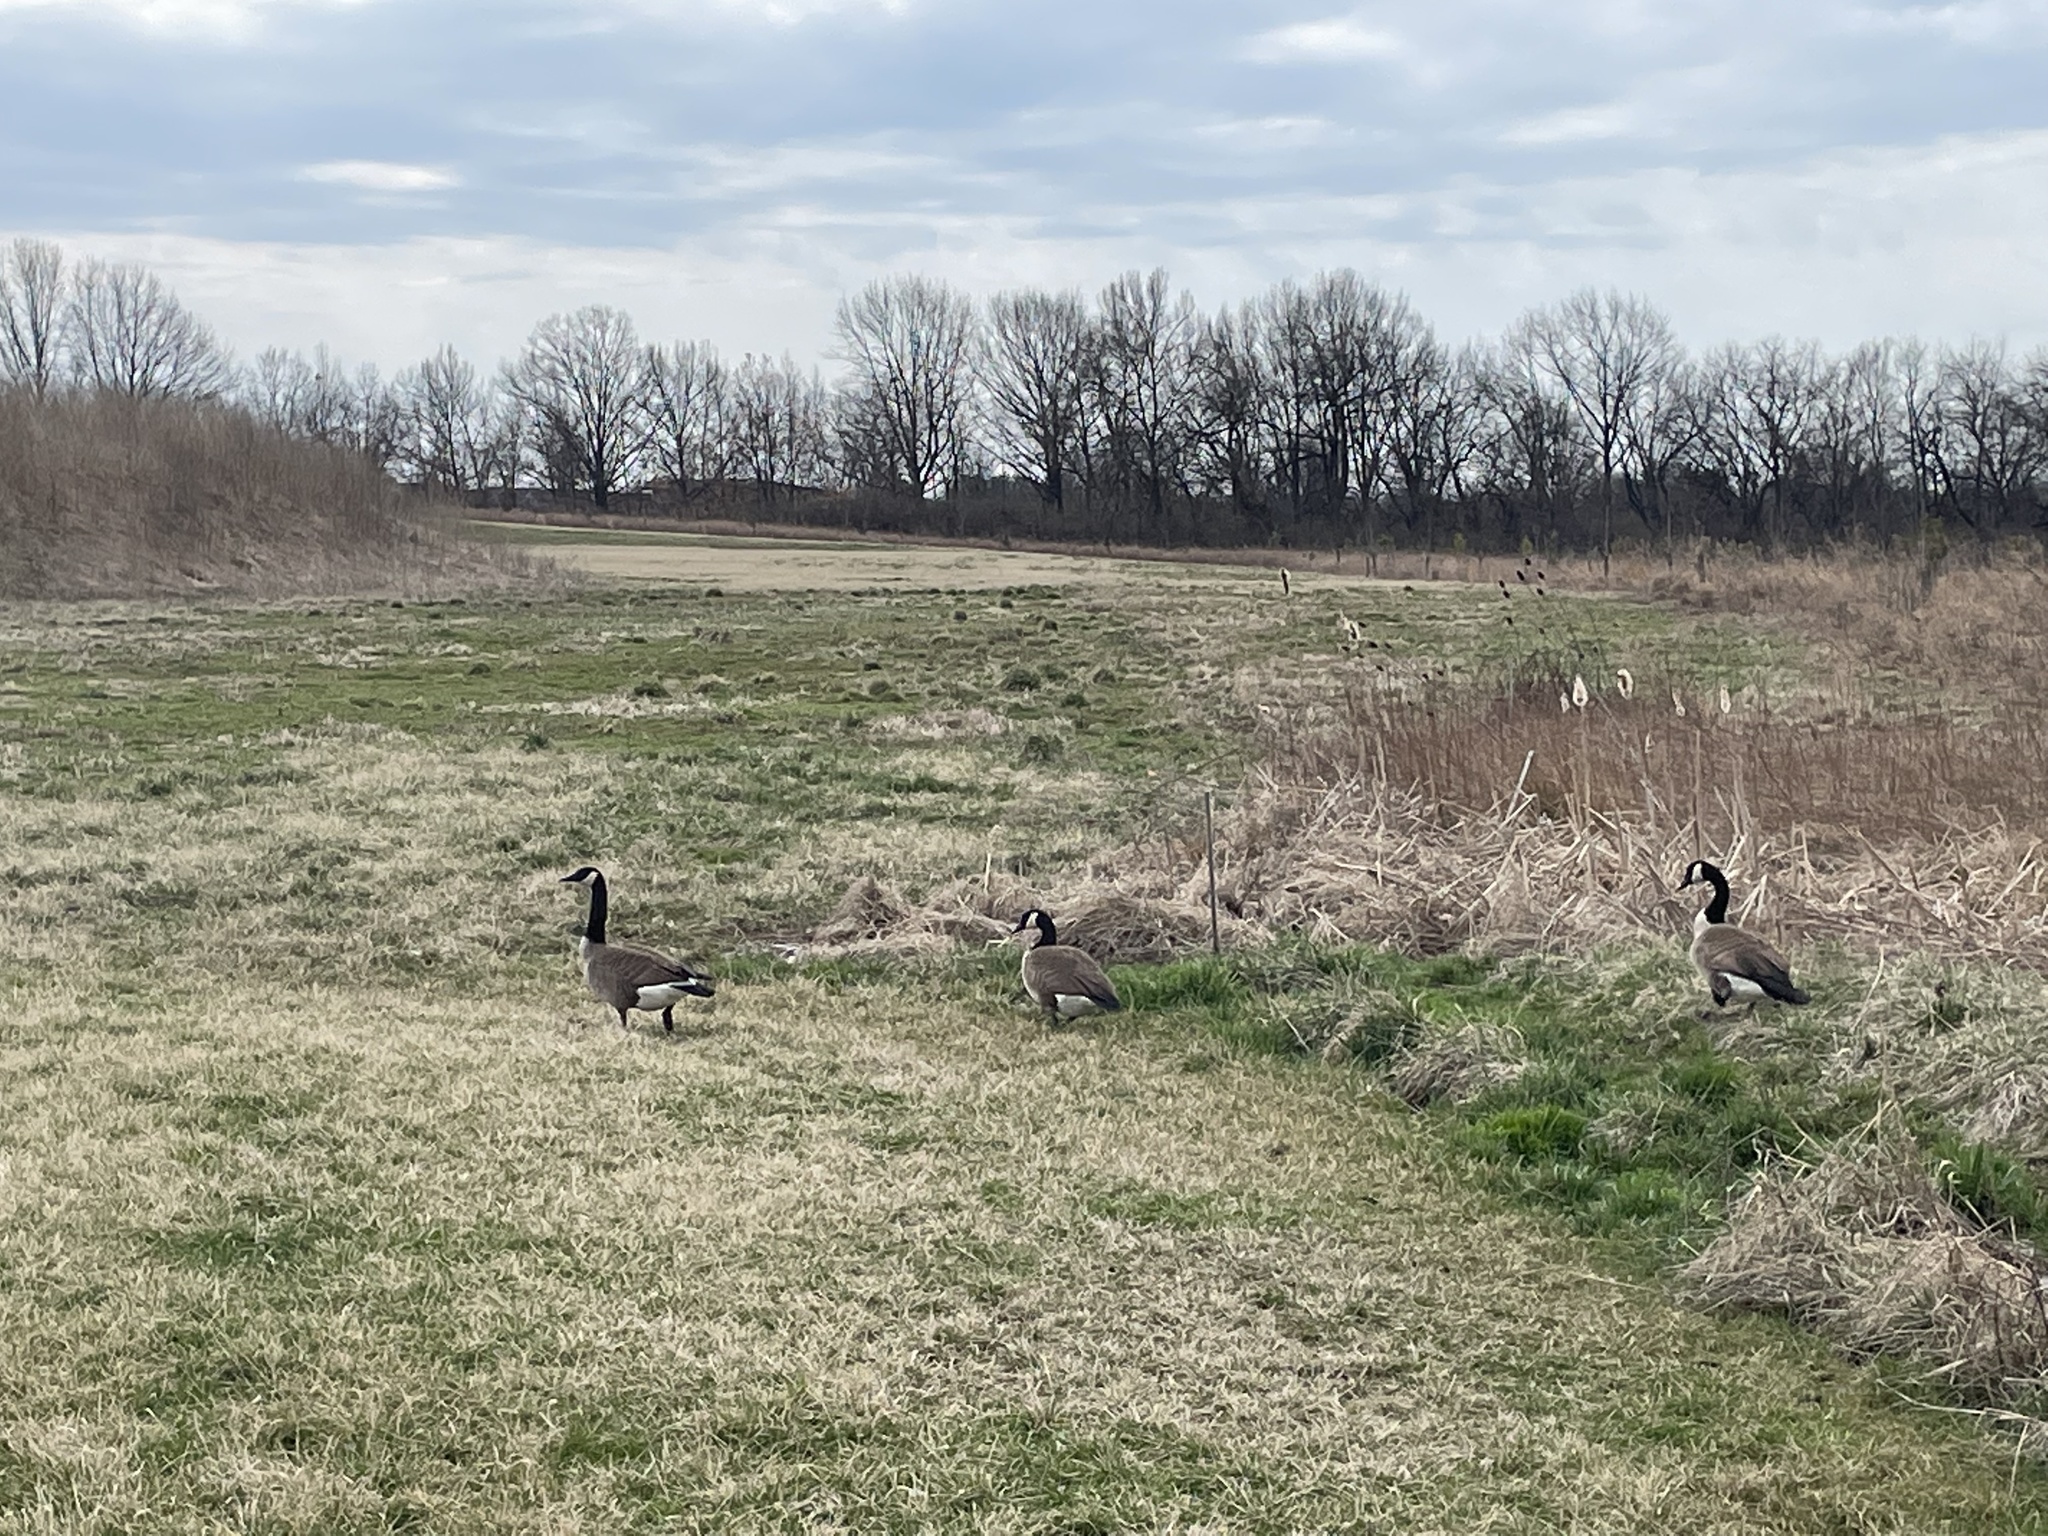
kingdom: Animalia
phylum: Chordata
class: Aves
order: Anseriformes
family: Anatidae
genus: Branta
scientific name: Branta canadensis
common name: Canada goose
